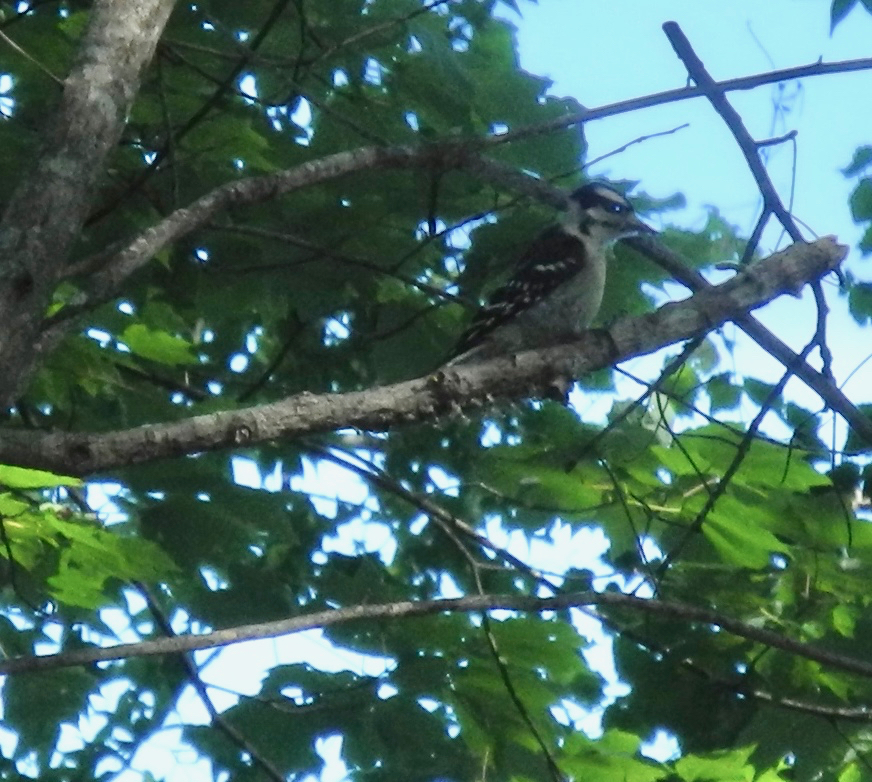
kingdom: Animalia
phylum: Chordata
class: Aves
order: Piciformes
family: Picidae
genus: Dryobates
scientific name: Dryobates pubescens
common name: Downy woodpecker
